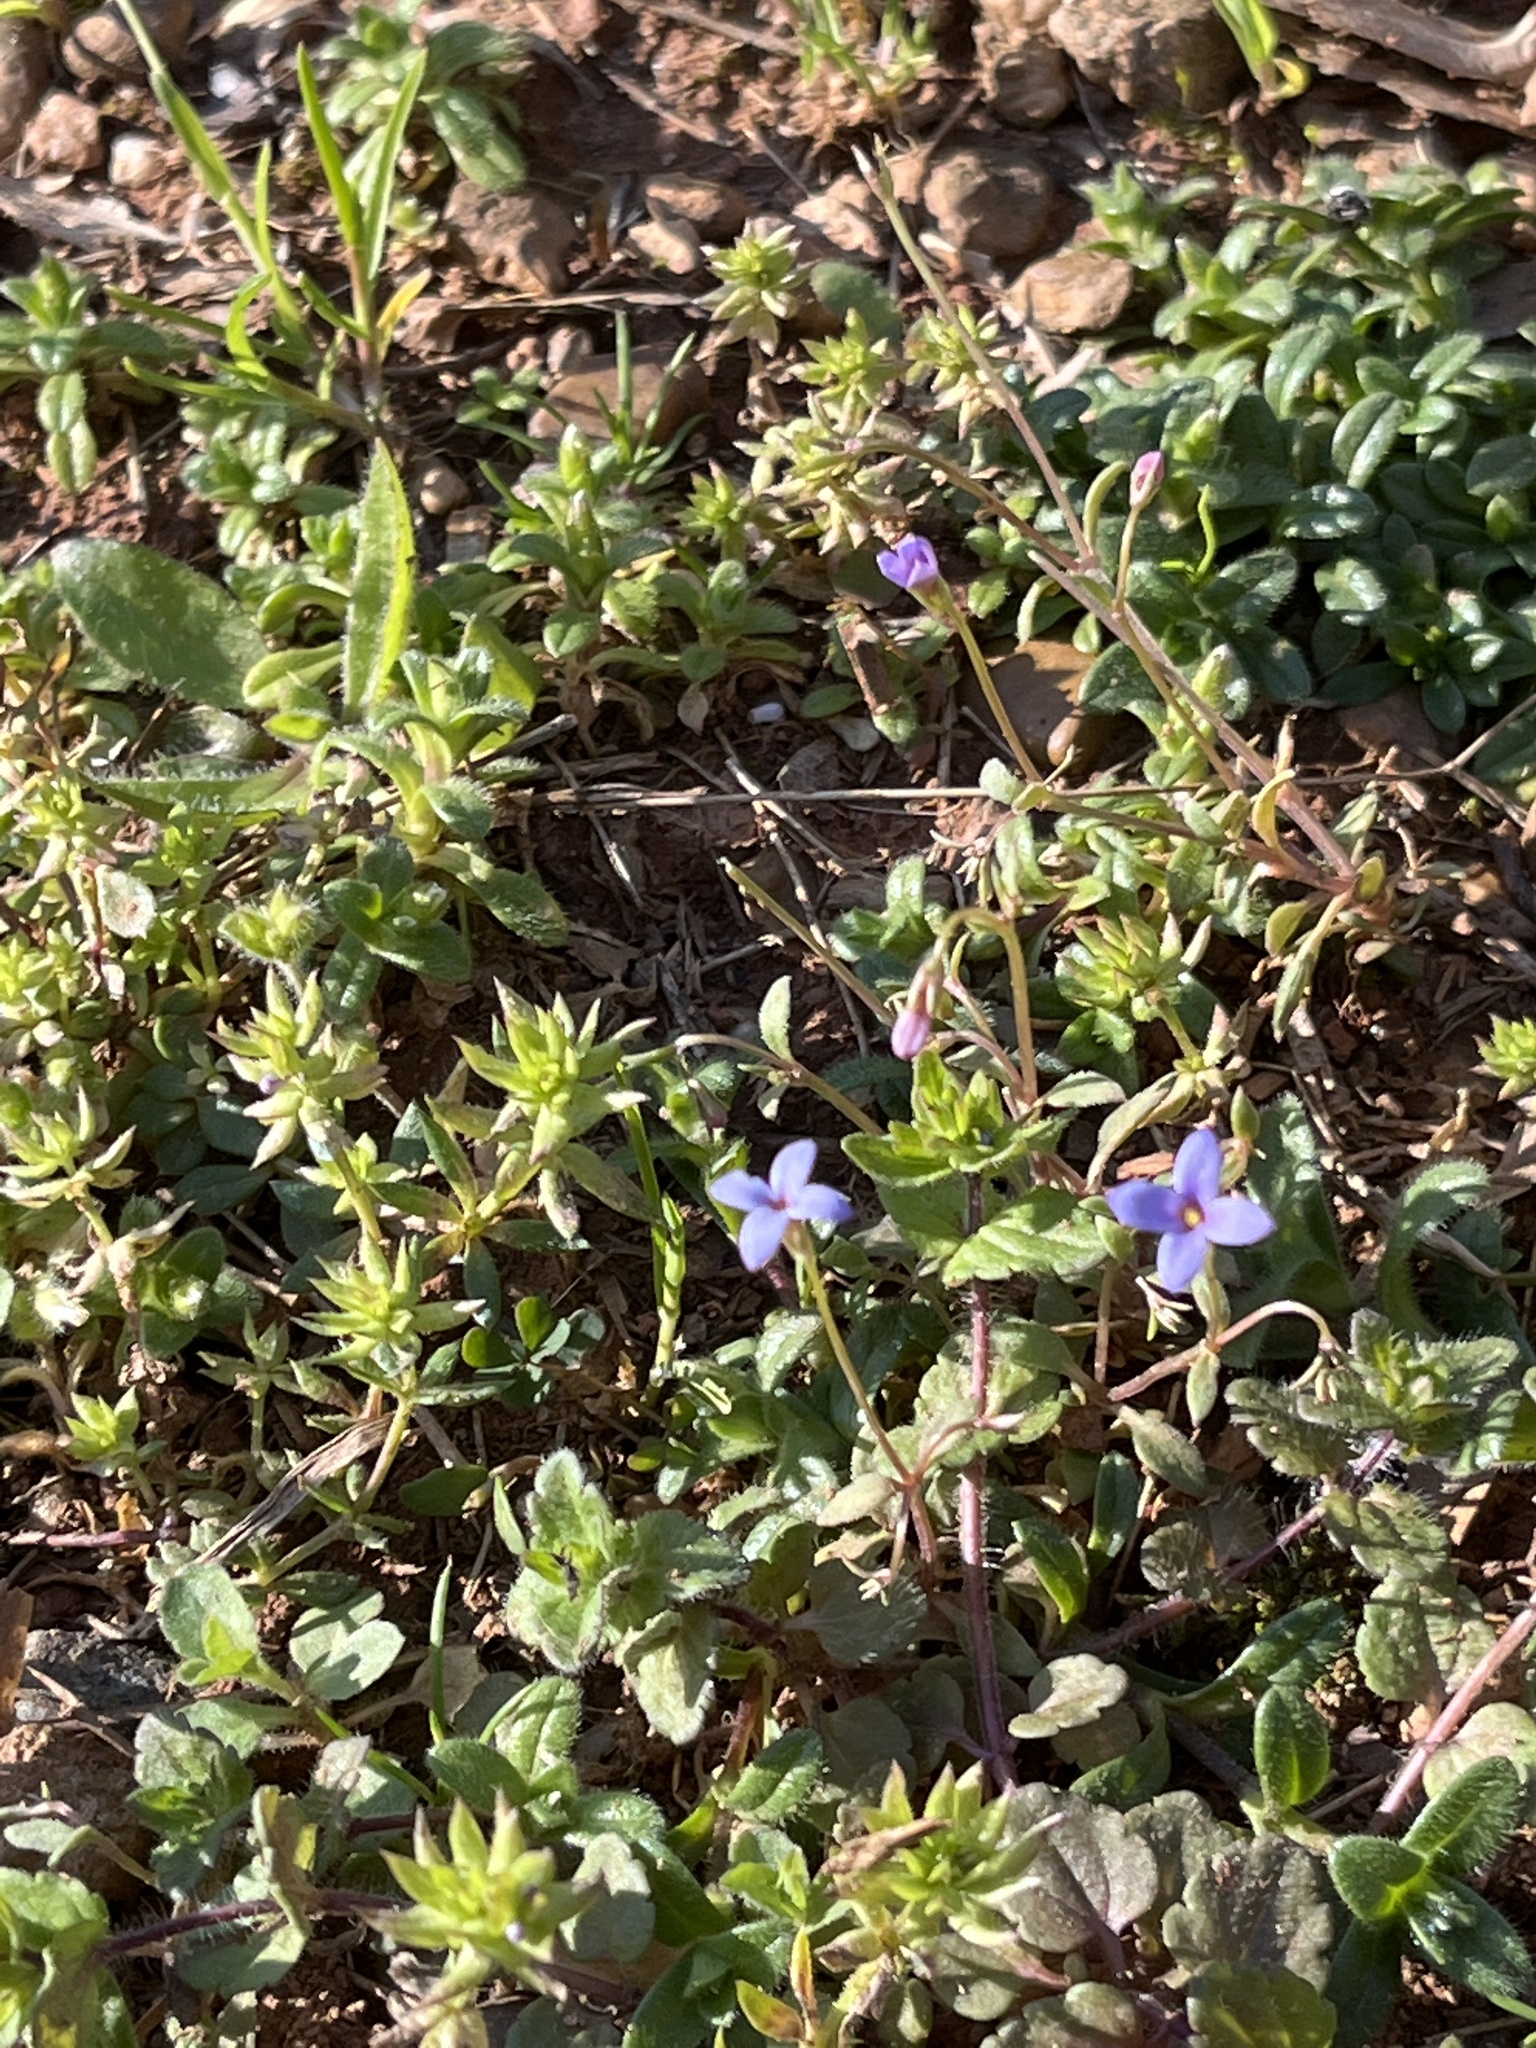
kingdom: Plantae
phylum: Tracheophyta
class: Magnoliopsida
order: Gentianales
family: Rubiaceae
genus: Sherardia
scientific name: Sherardia arvensis
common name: Field madder
